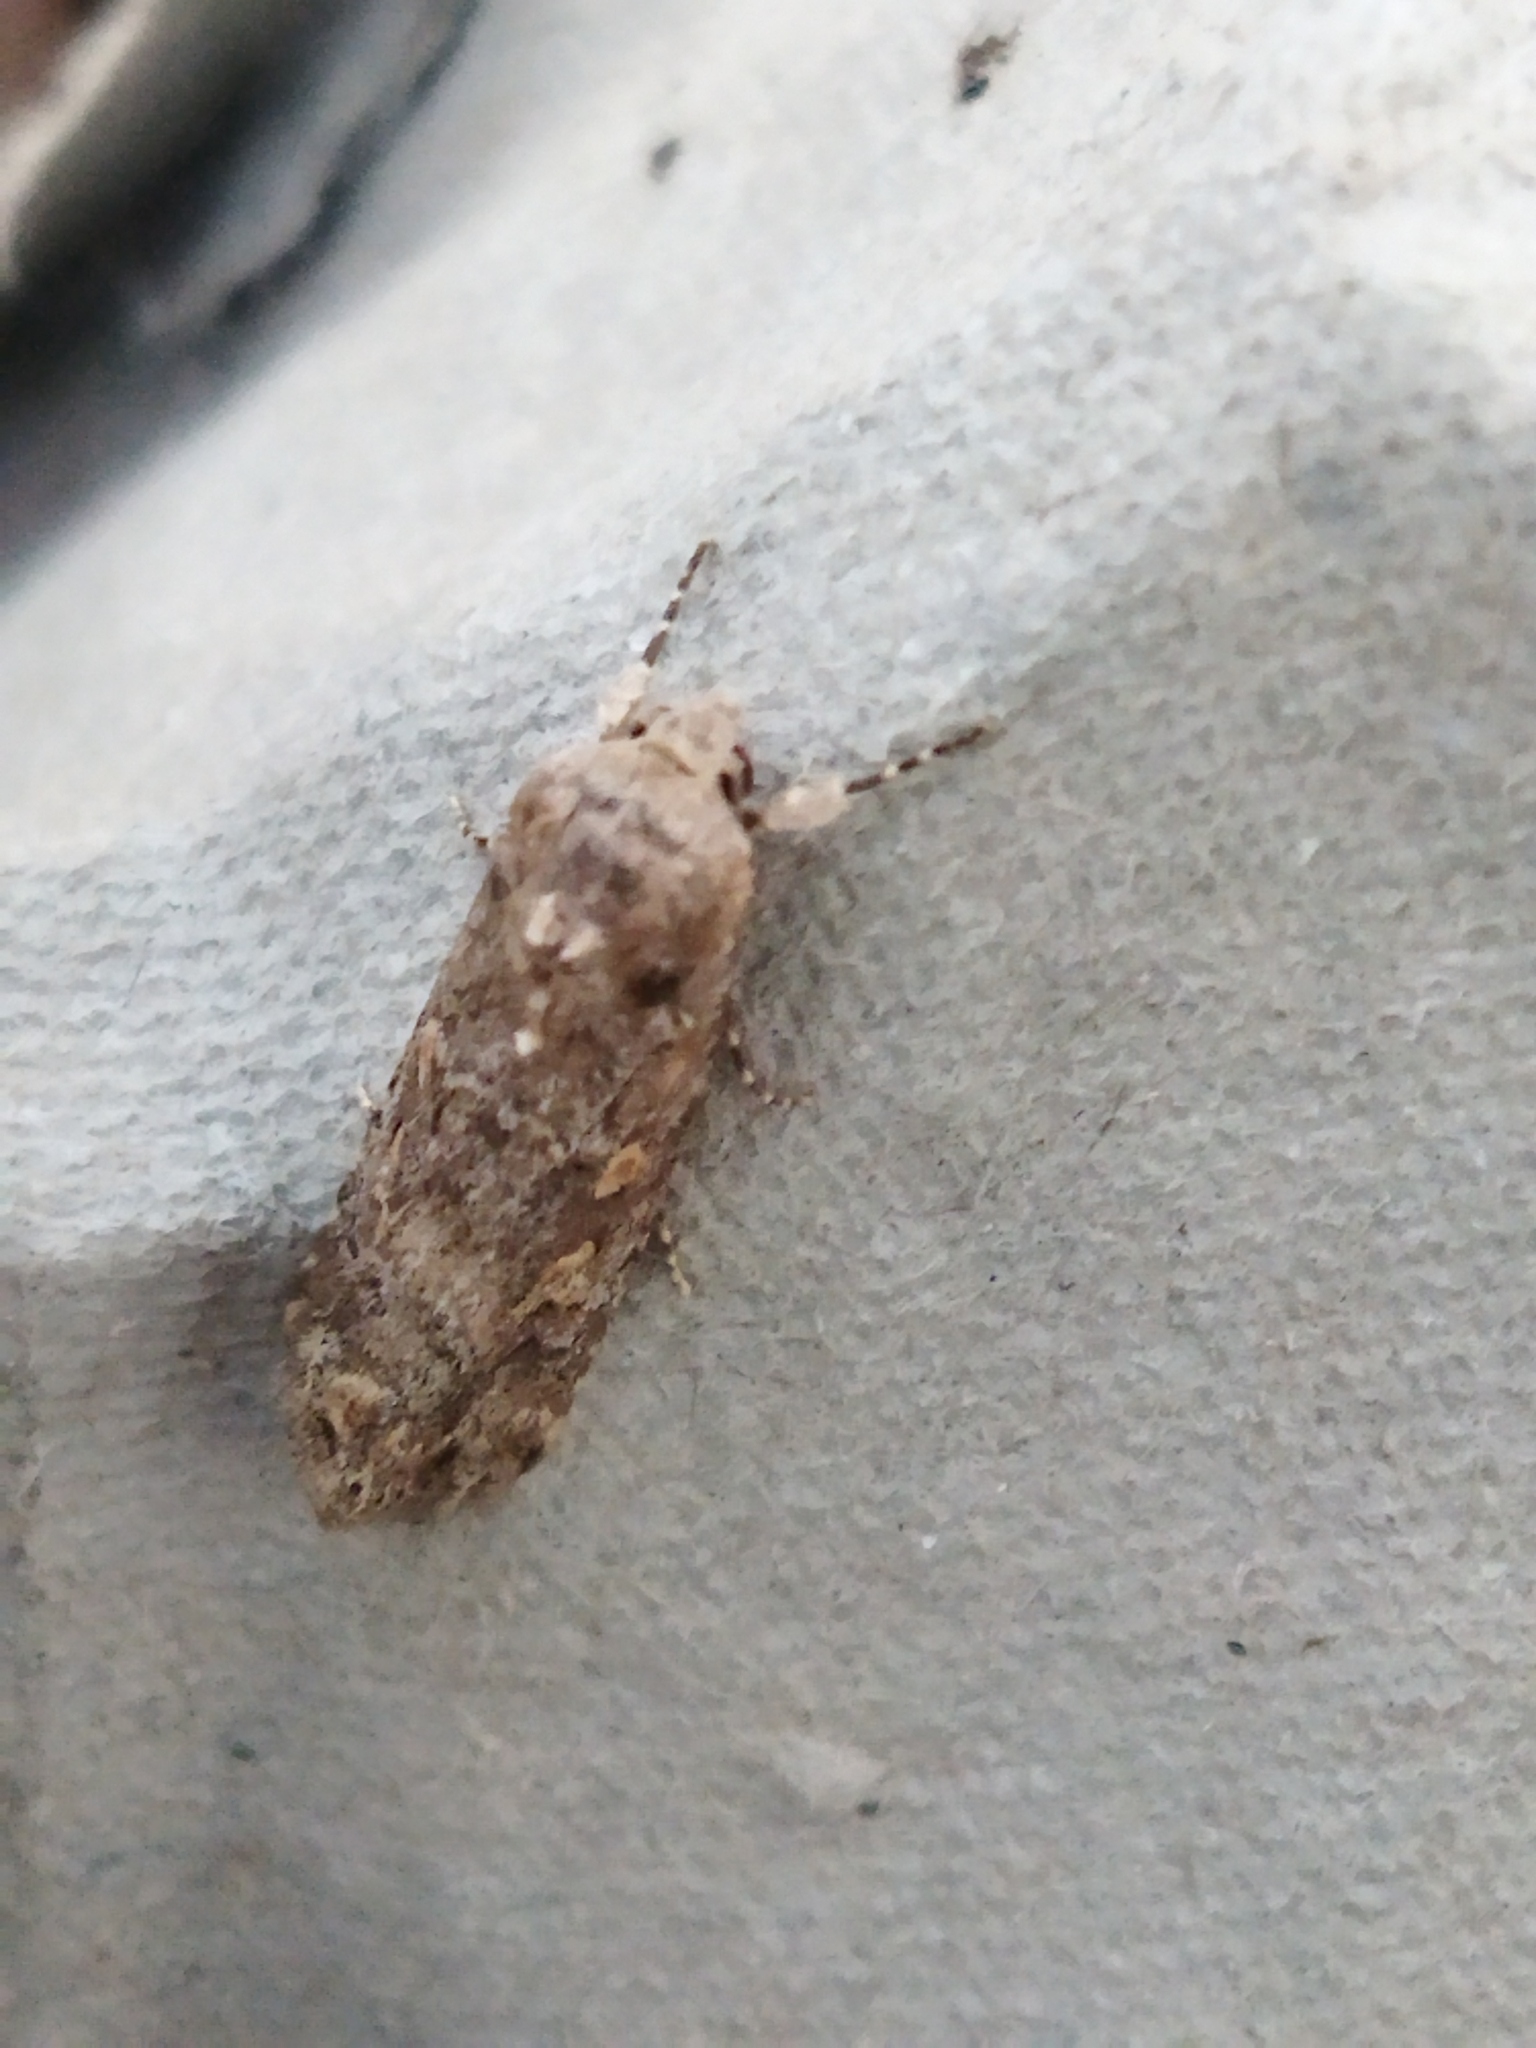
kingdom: Animalia
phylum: Arthropoda
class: Insecta
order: Lepidoptera
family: Noctuidae
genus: Spodoptera
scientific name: Spodoptera exigua
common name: Beet armyworm
